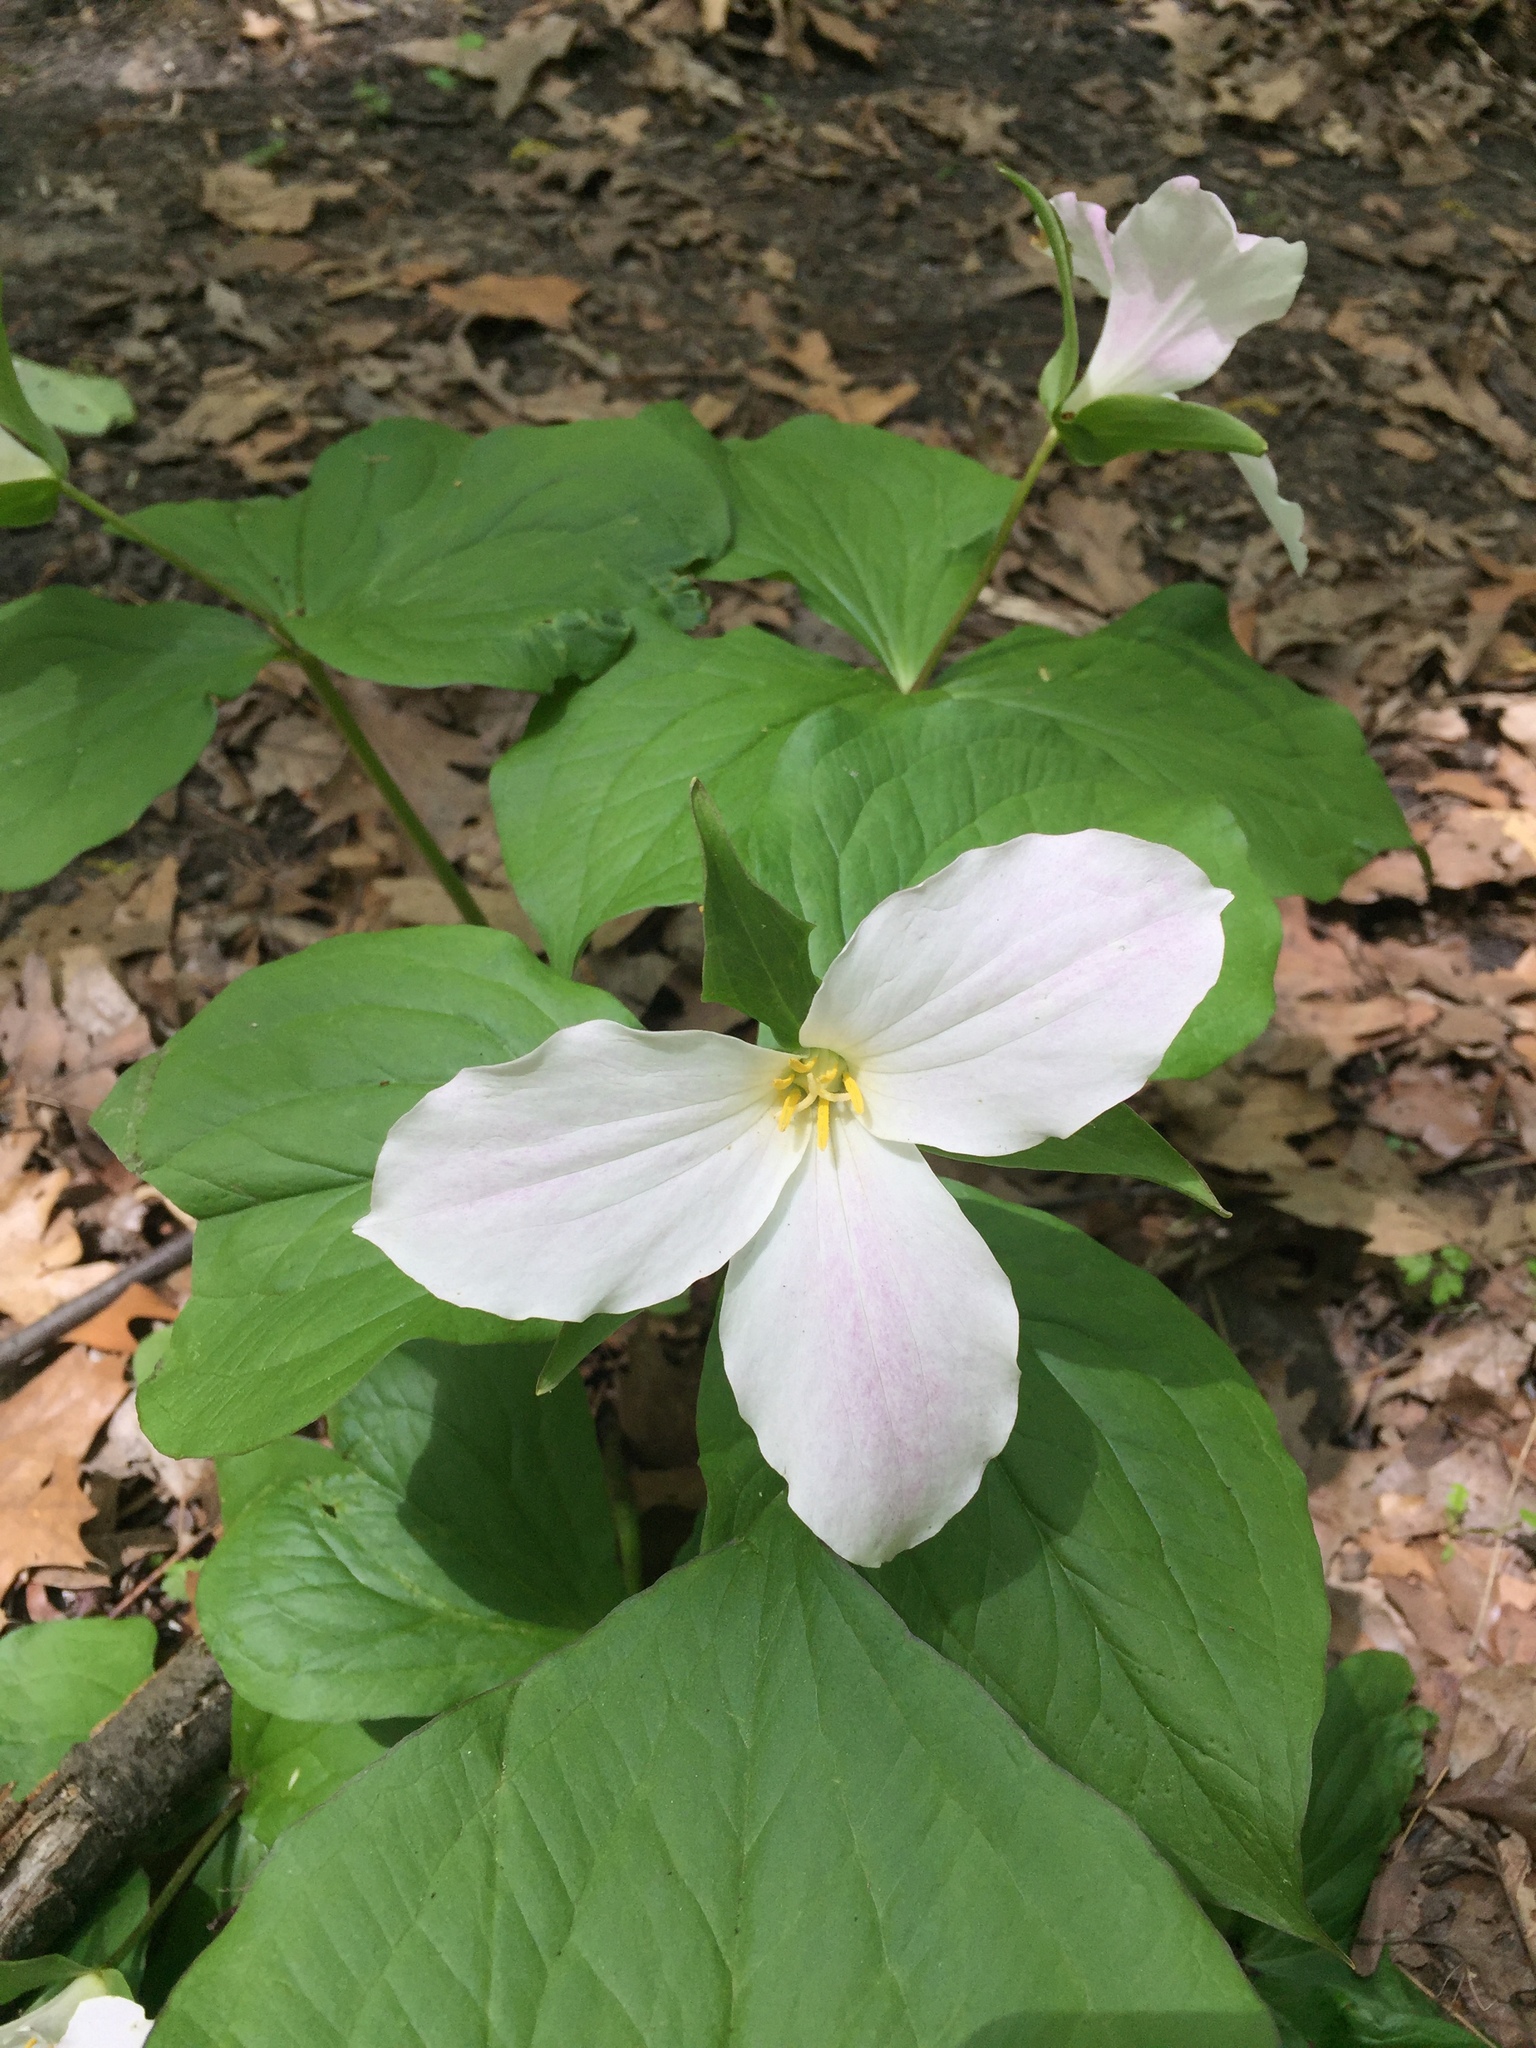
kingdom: Plantae
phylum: Tracheophyta
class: Liliopsida
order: Liliales
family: Melanthiaceae
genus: Trillium
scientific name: Trillium grandiflorum
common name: Great white trillium
